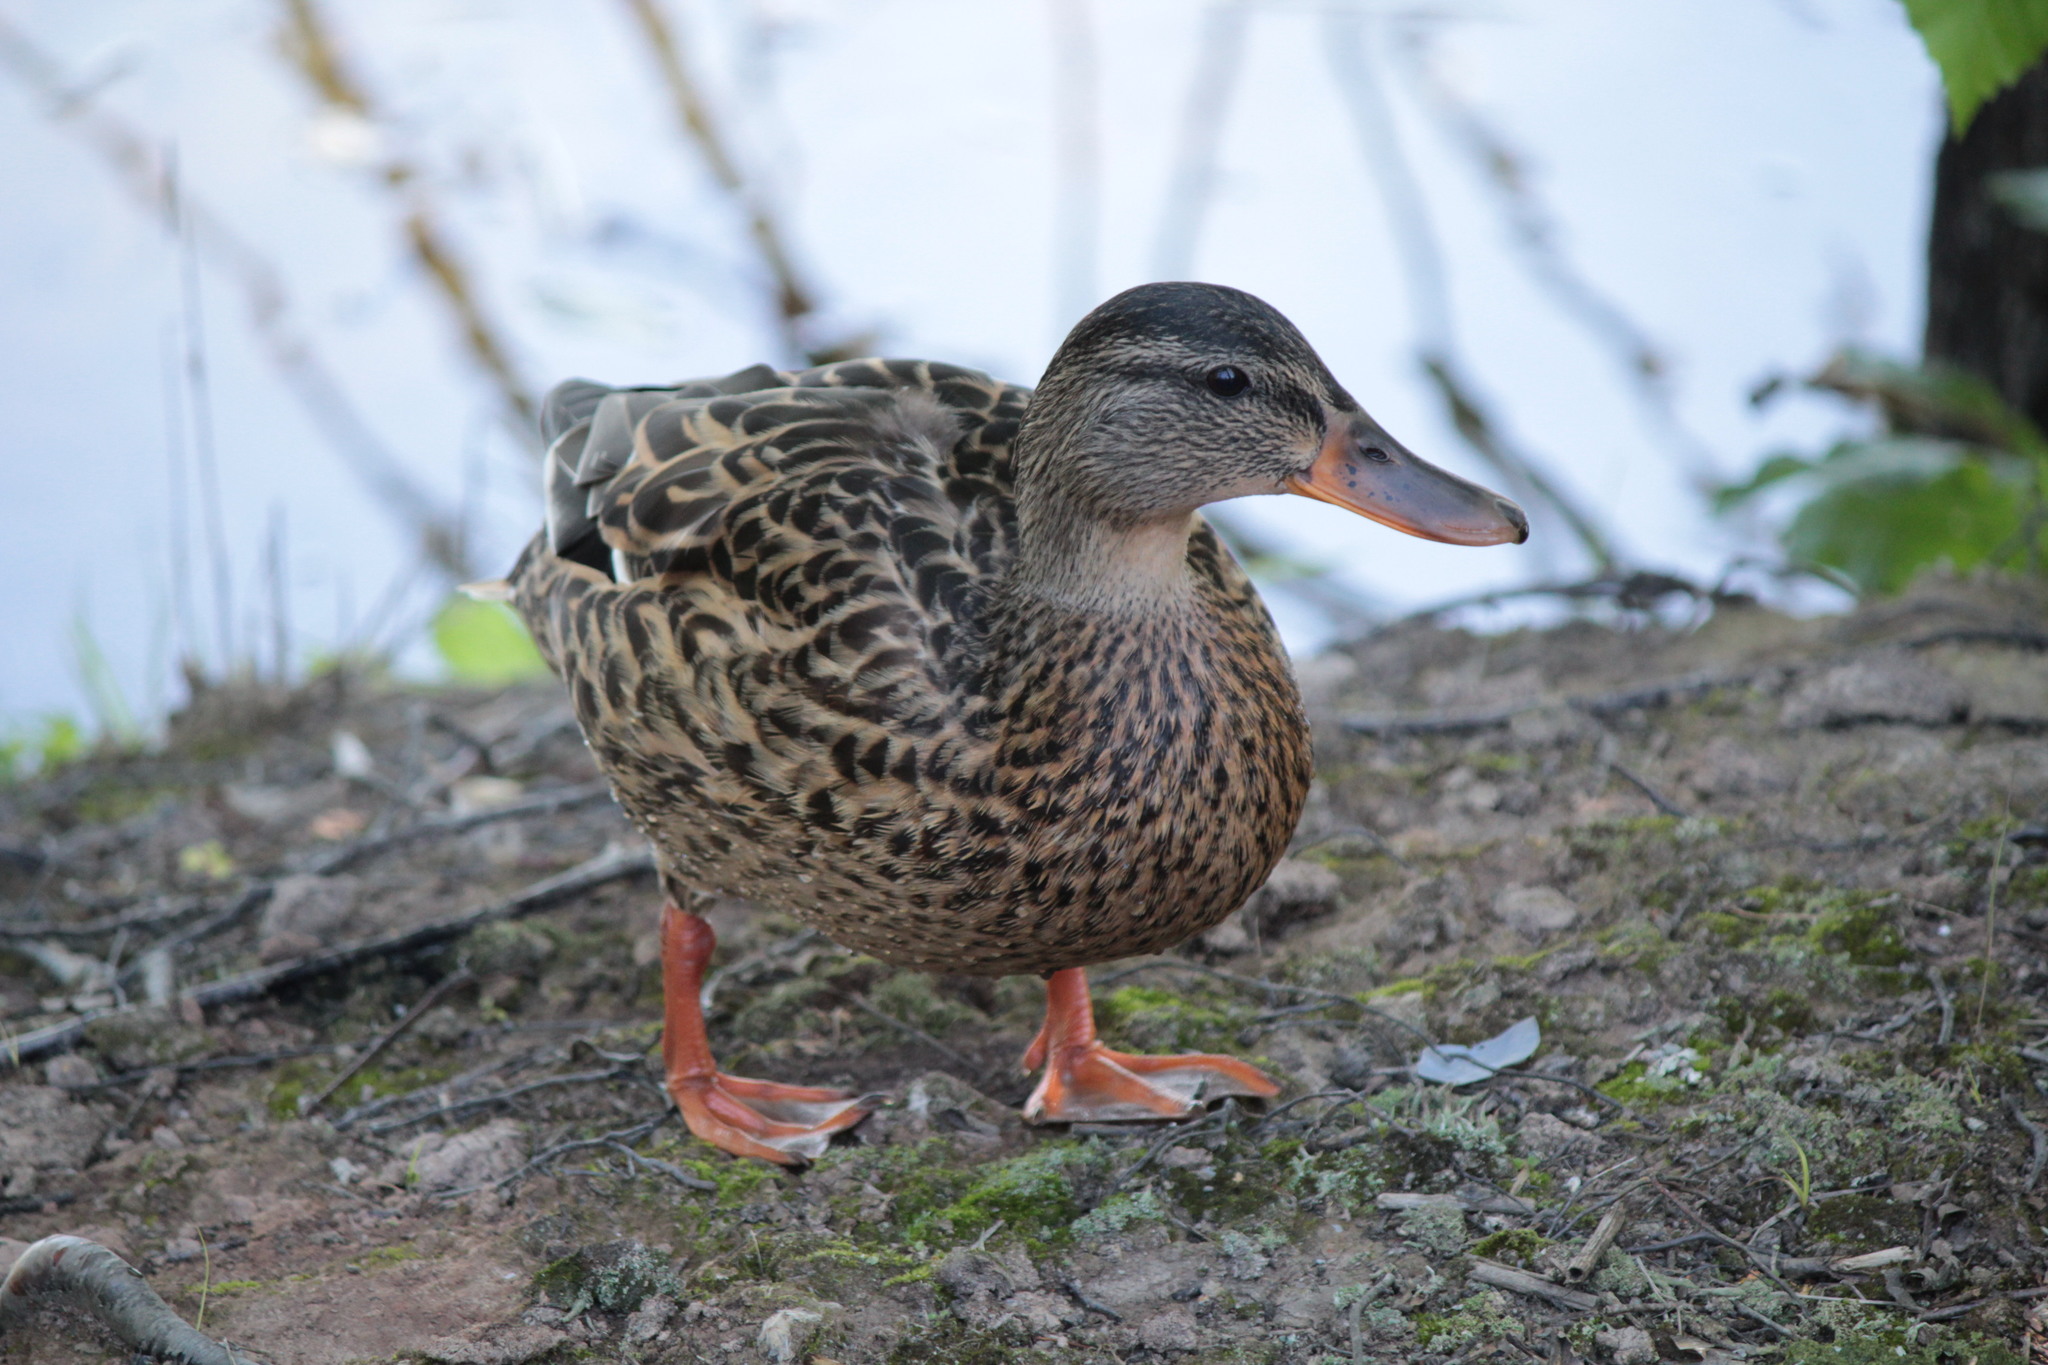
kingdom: Animalia
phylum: Chordata
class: Aves
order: Anseriformes
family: Anatidae
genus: Anas
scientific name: Anas platyrhynchos
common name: Mallard
